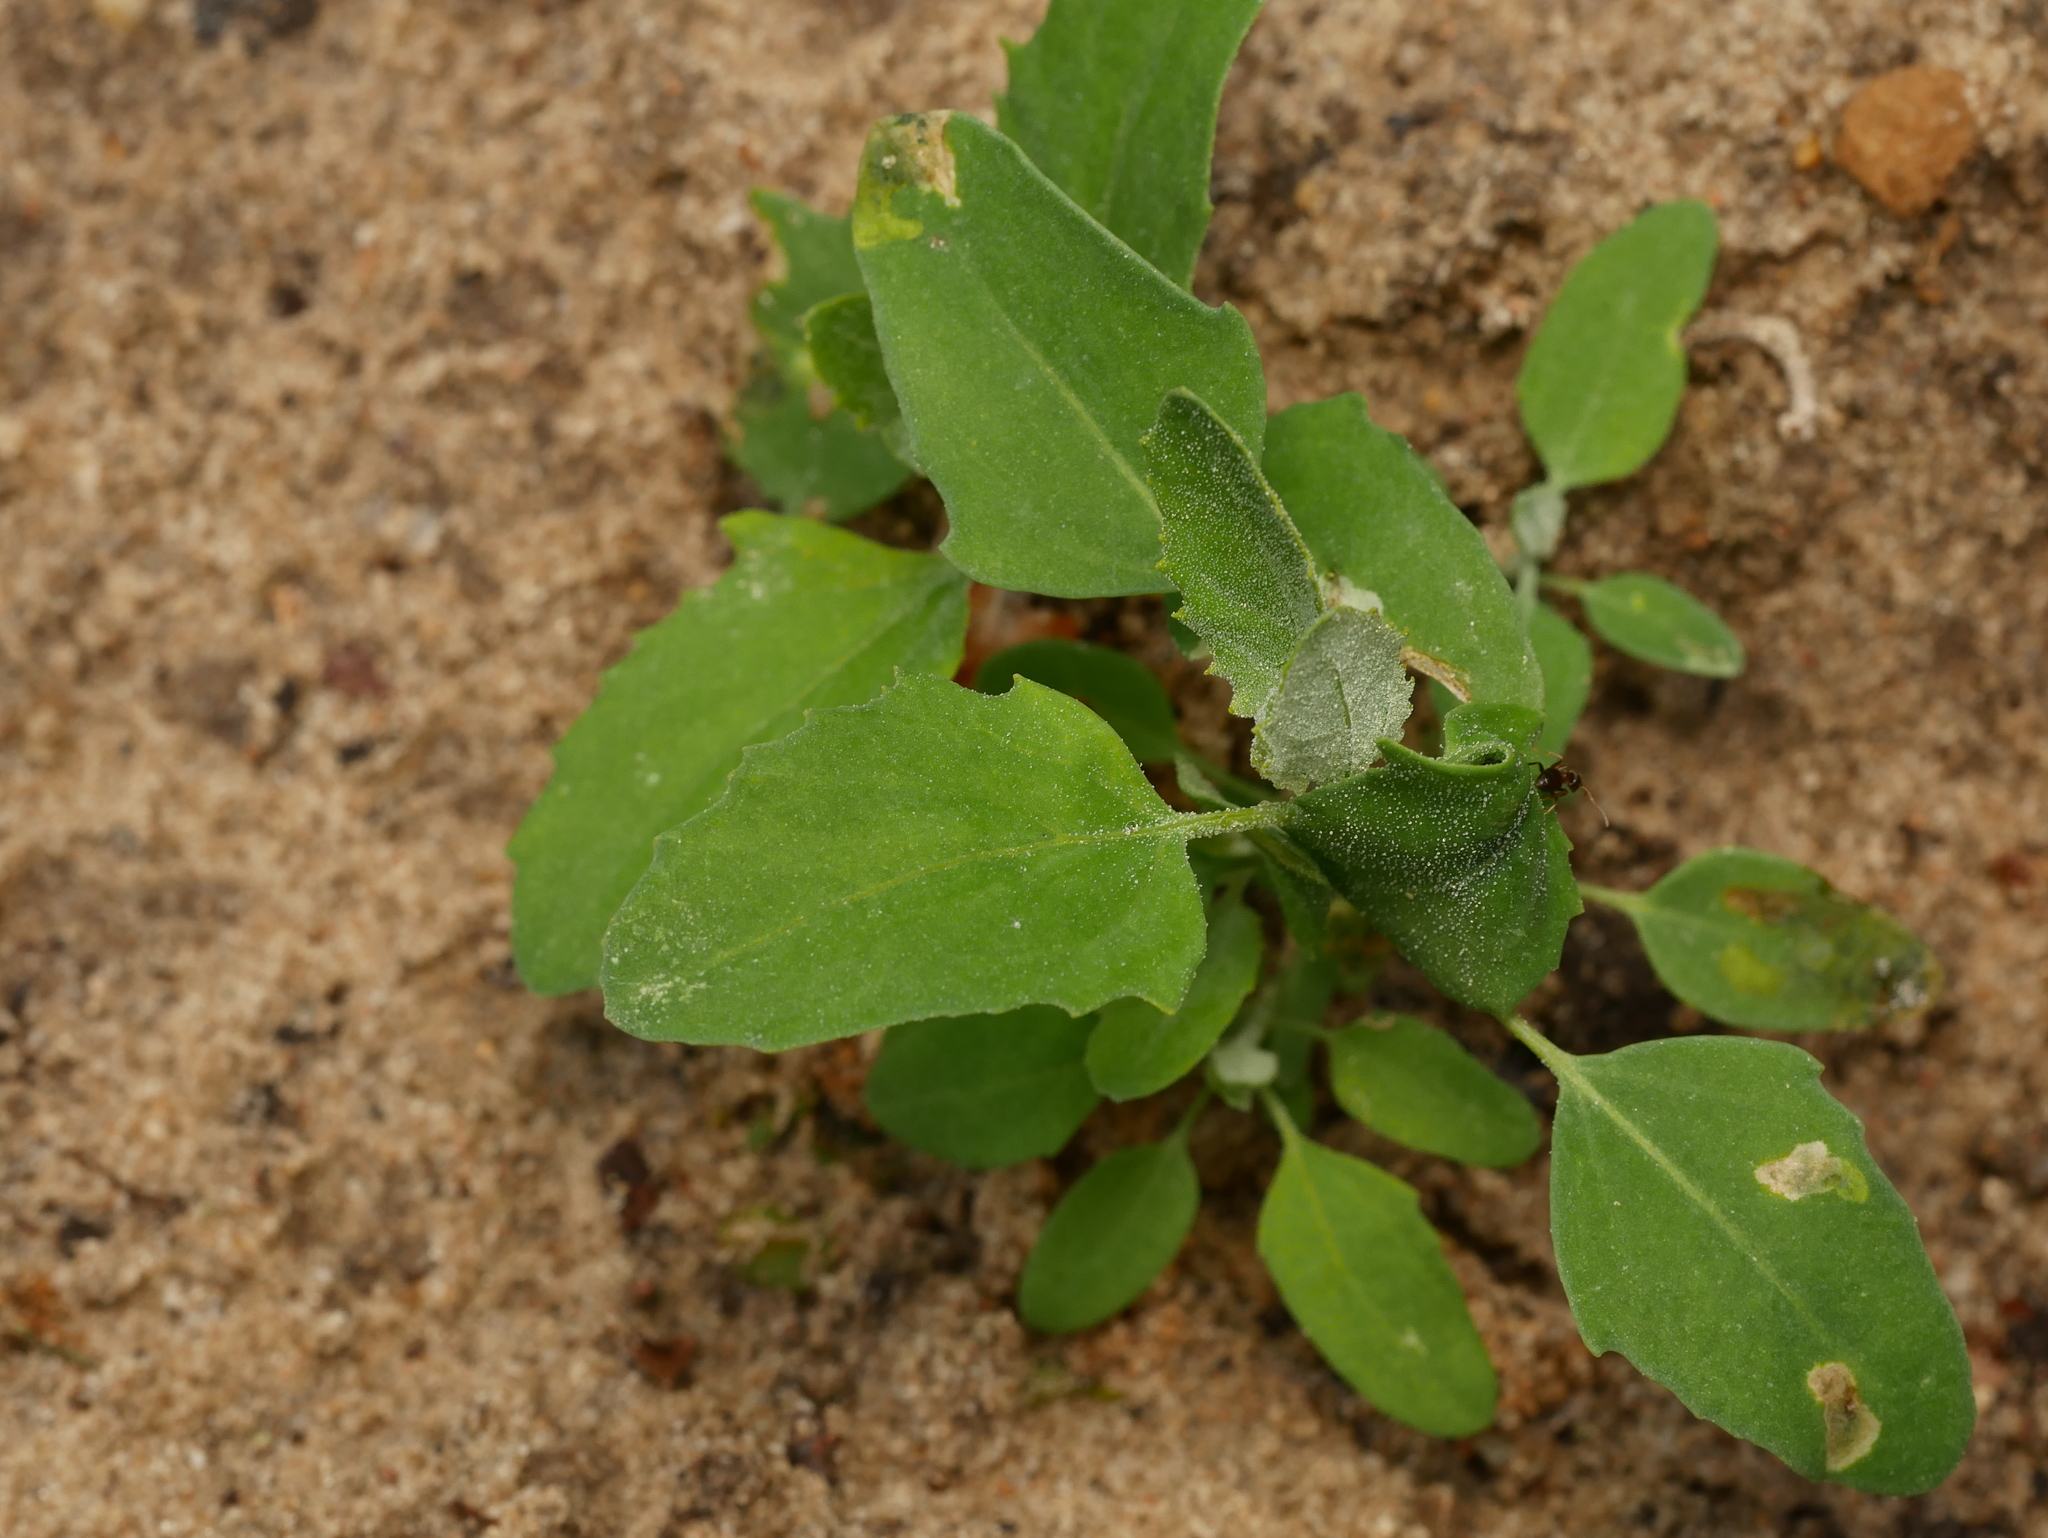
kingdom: Plantae
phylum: Tracheophyta
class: Magnoliopsida
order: Caryophyllales
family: Amaranthaceae
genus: Chenopodium
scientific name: Chenopodium album
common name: Fat-hen
